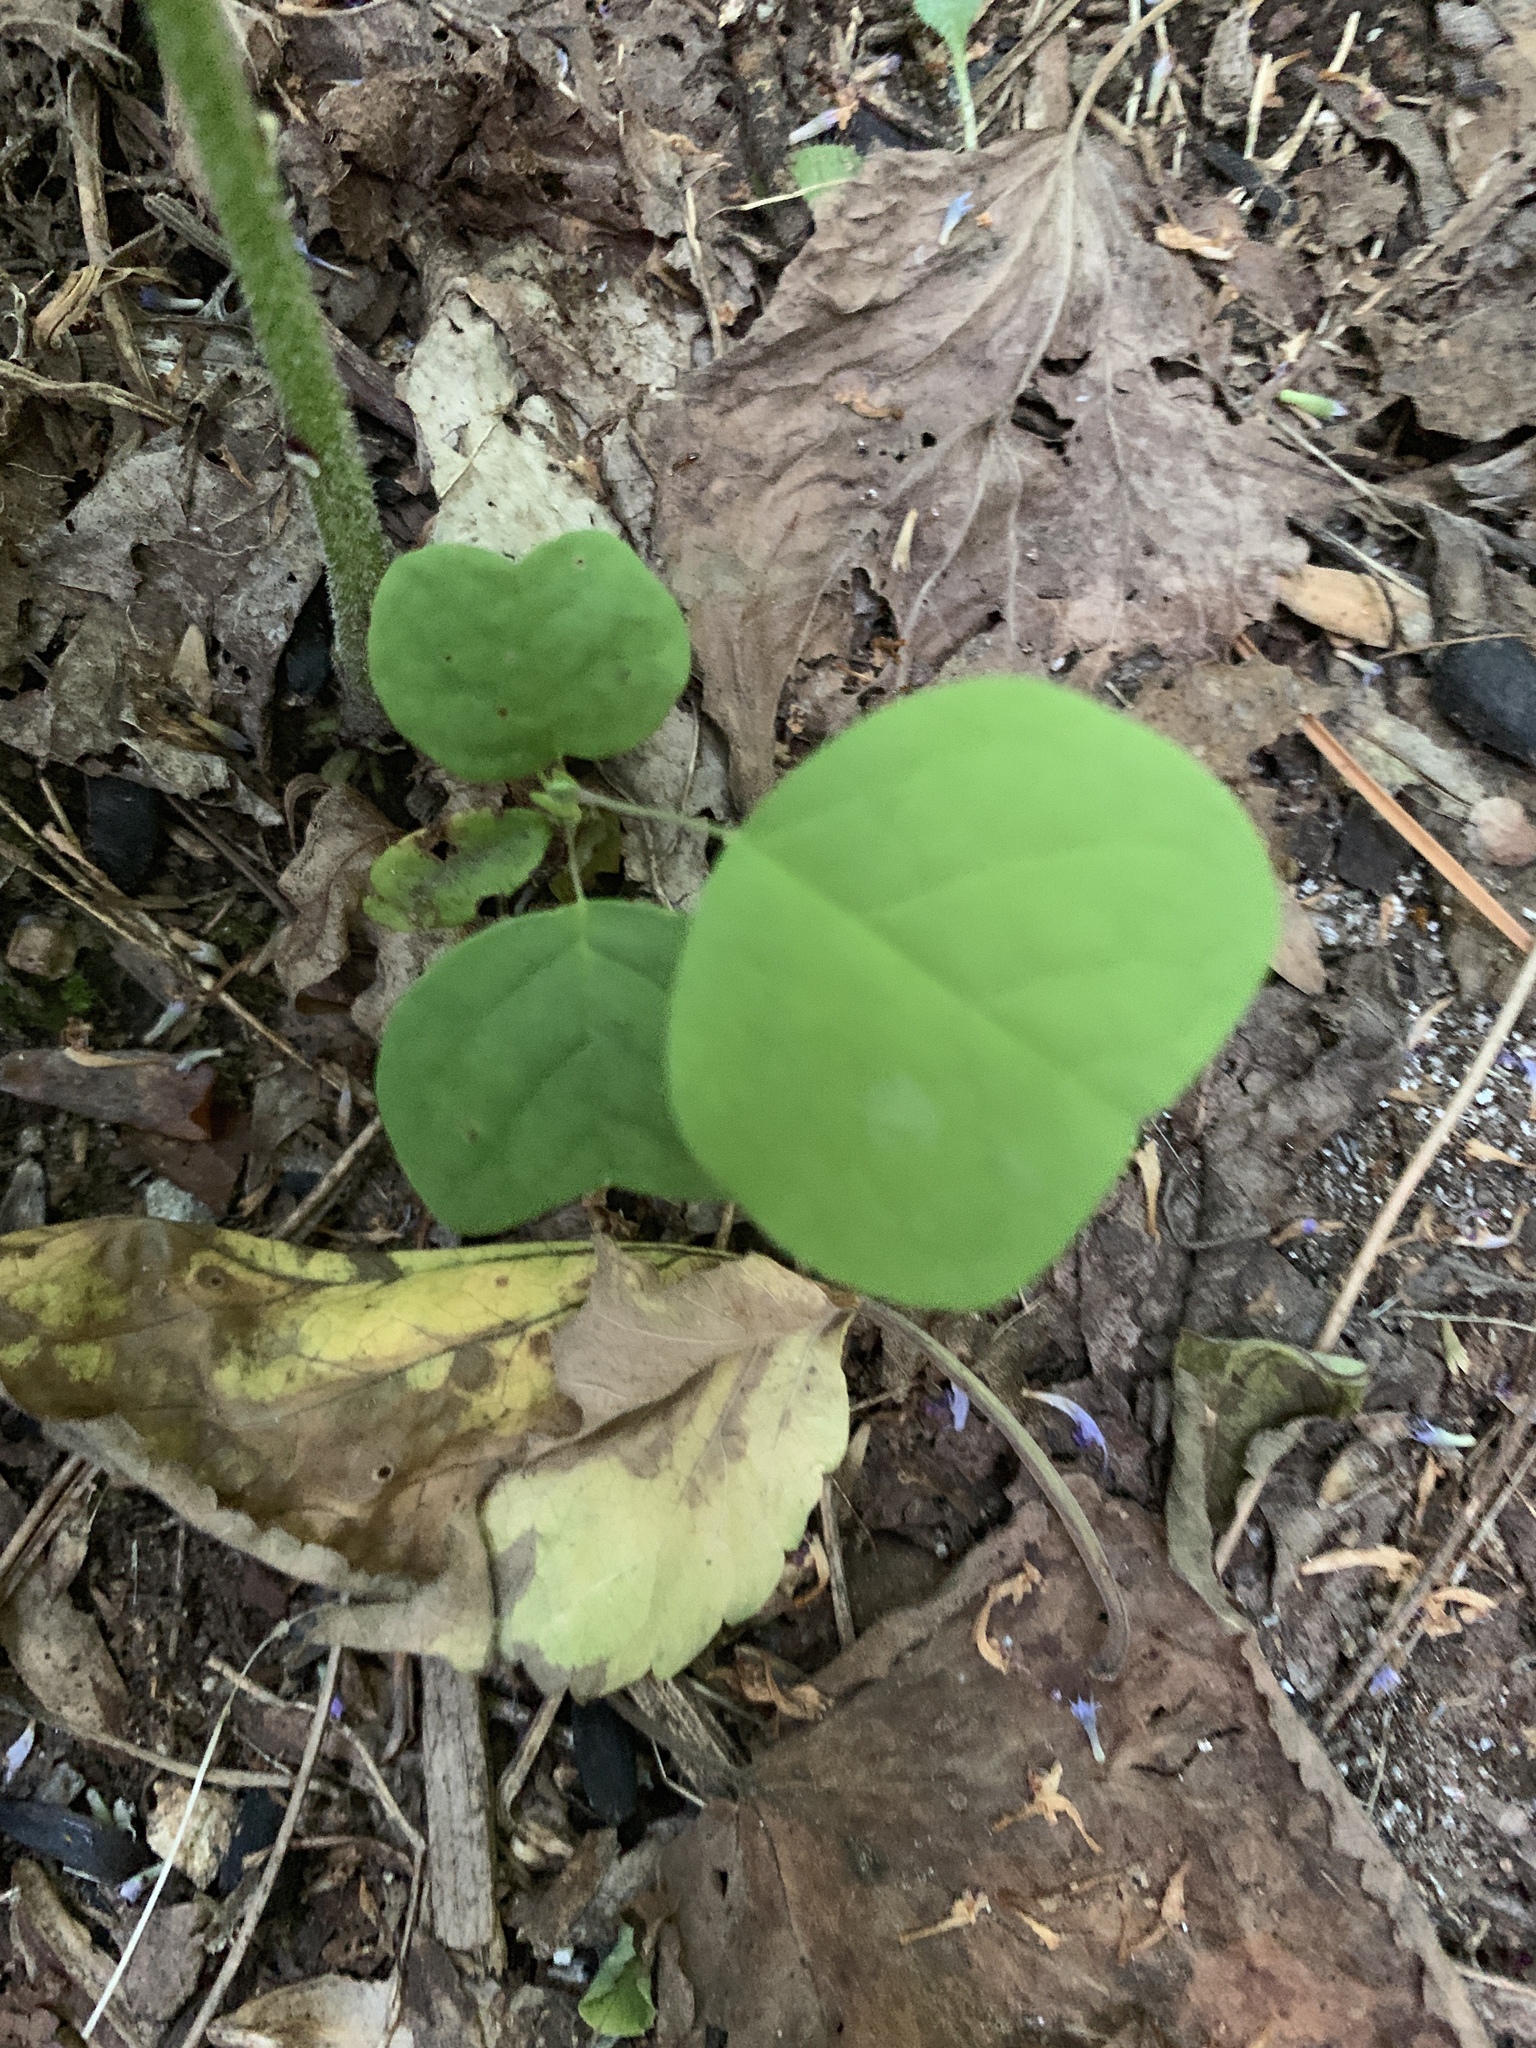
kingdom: Plantae
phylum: Tracheophyta
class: Magnoliopsida
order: Magnoliales
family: Magnoliaceae
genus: Liriodendron
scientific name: Liriodendron tulipifera
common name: Tulip tree
